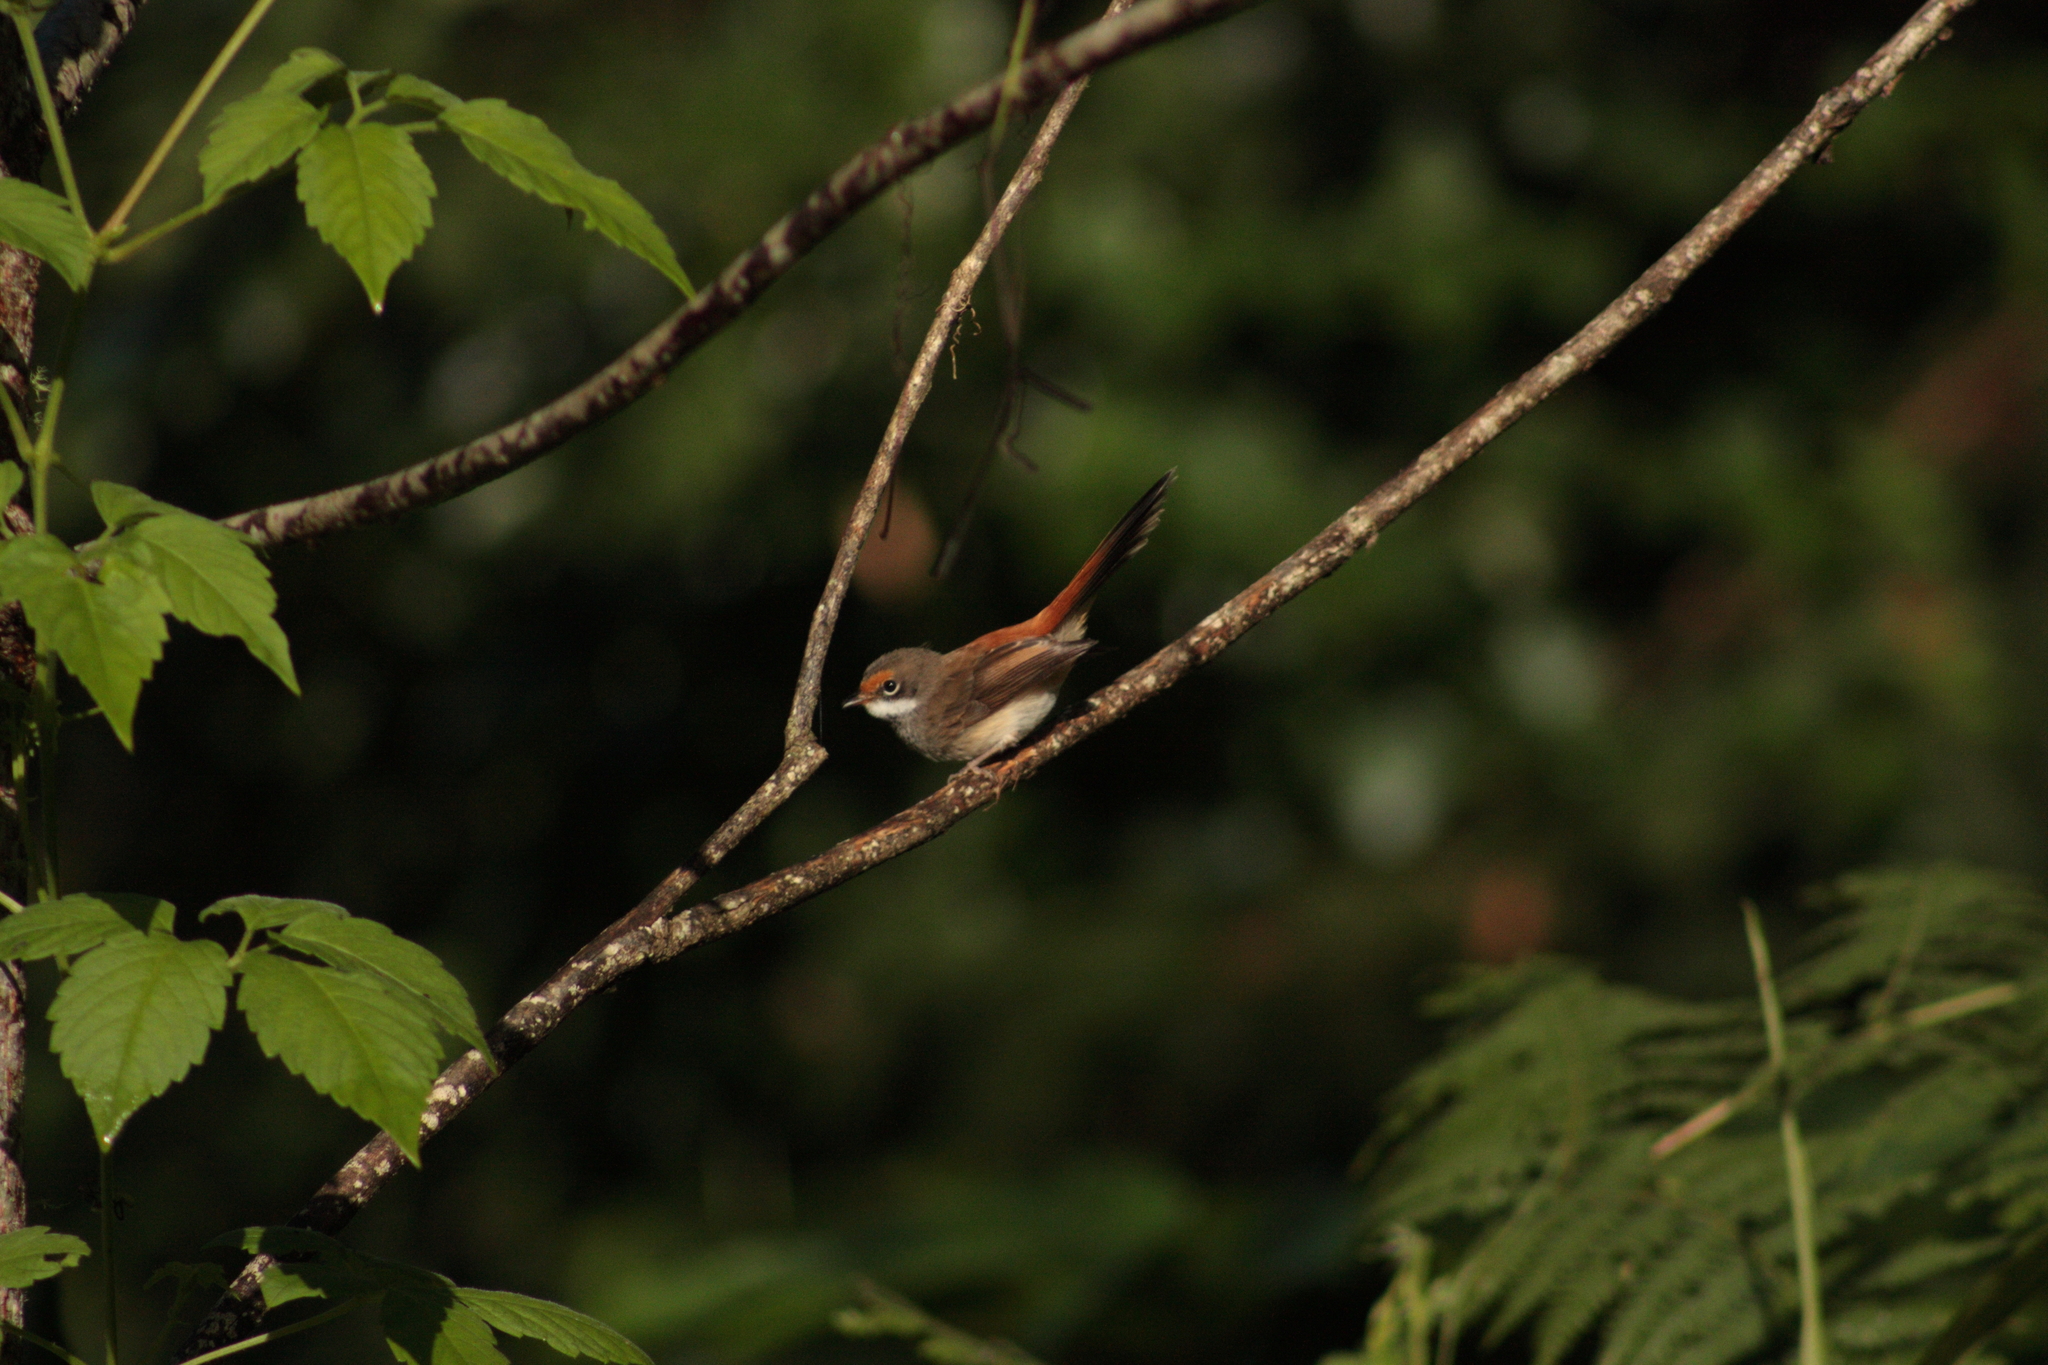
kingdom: Animalia
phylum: Chordata
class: Aves
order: Passeriformes
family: Rhipiduridae
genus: Rhipidura
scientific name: Rhipidura rufifrons
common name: Rufous fantail
